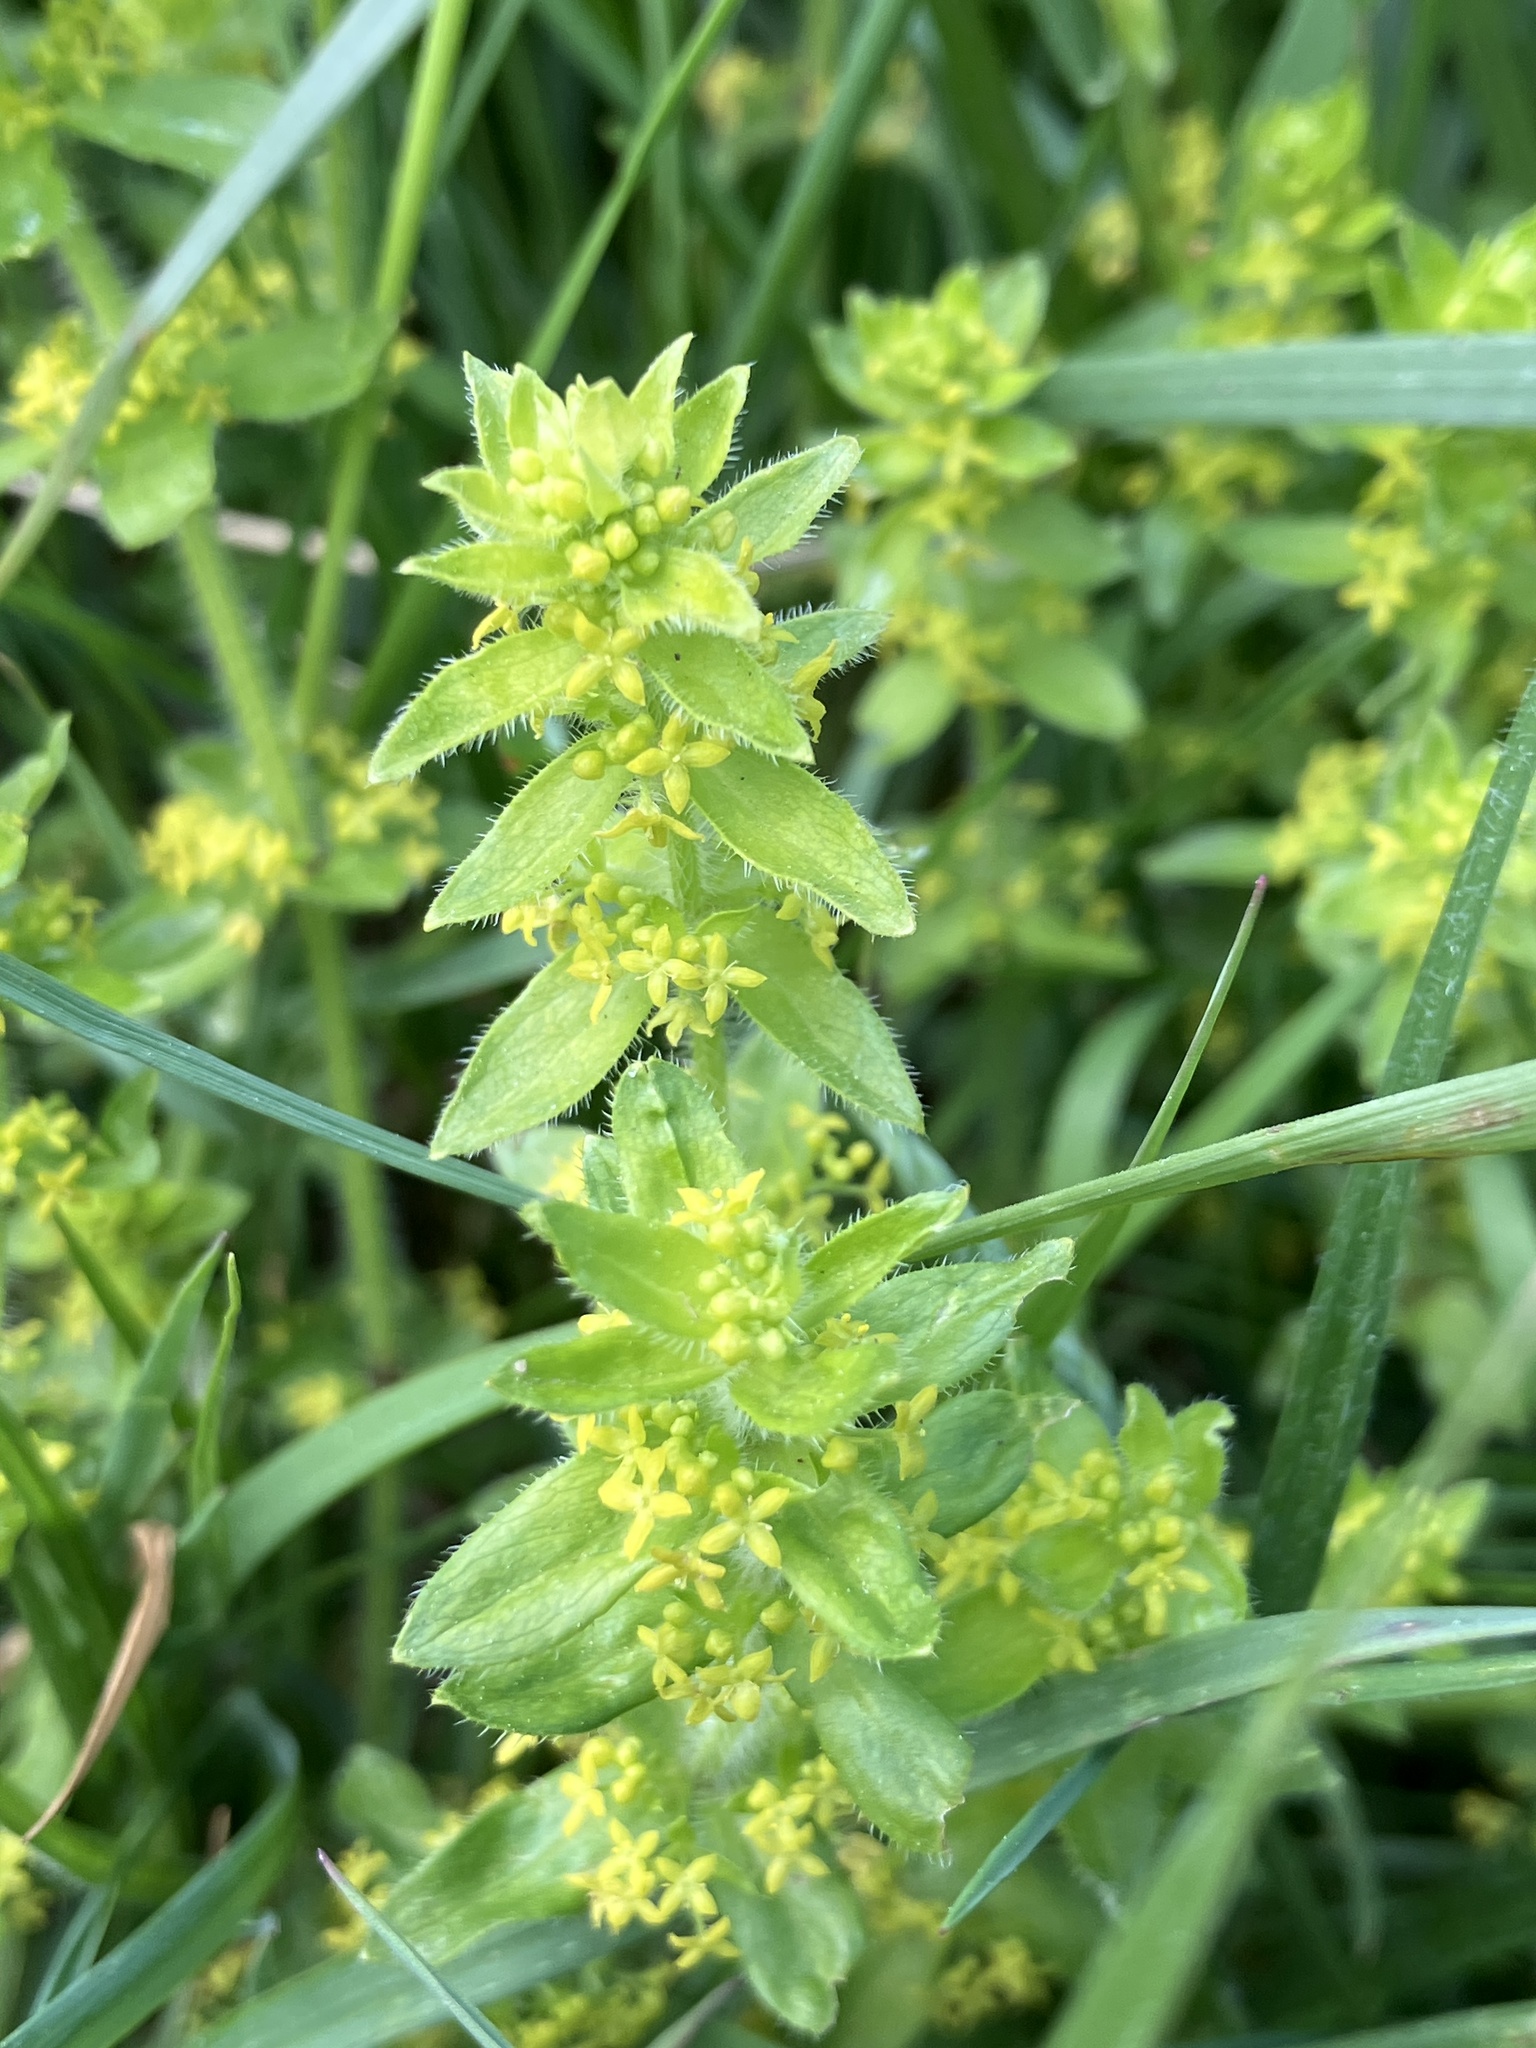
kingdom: Plantae
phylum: Tracheophyta
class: Magnoliopsida
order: Gentianales
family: Rubiaceae
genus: Cruciata
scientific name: Cruciata laevipes
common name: Crosswort
